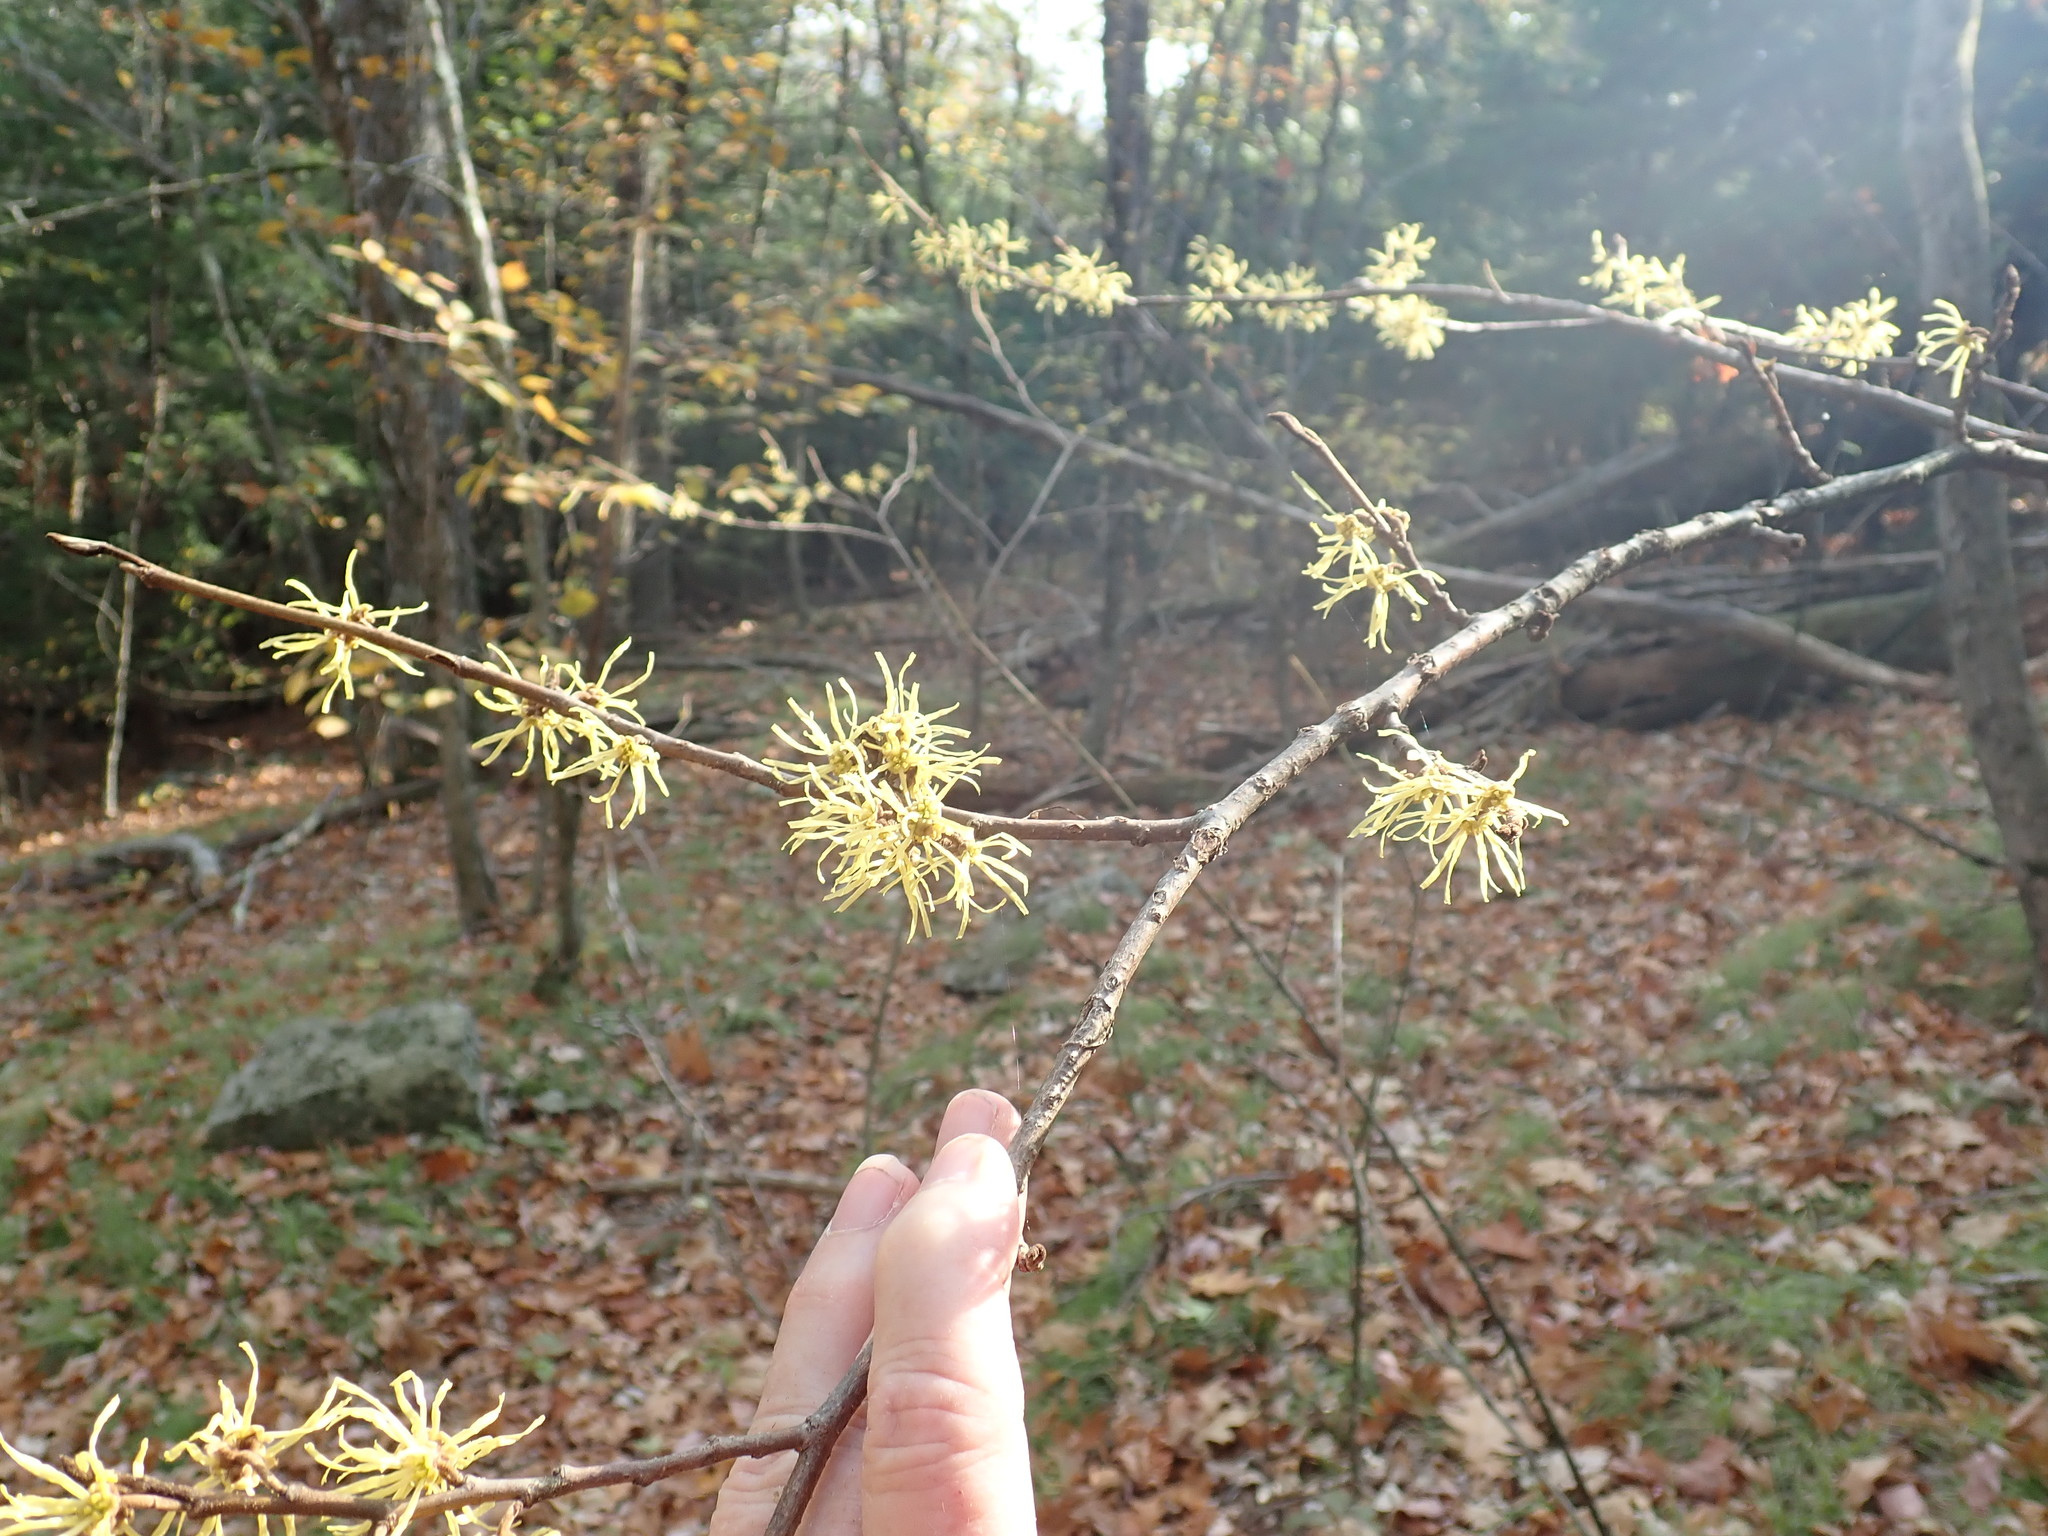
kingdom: Plantae
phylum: Tracheophyta
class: Magnoliopsida
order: Saxifragales
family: Hamamelidaceae
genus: Hamamelis
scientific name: Hamamelis virginiana
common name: Witch-hazel
